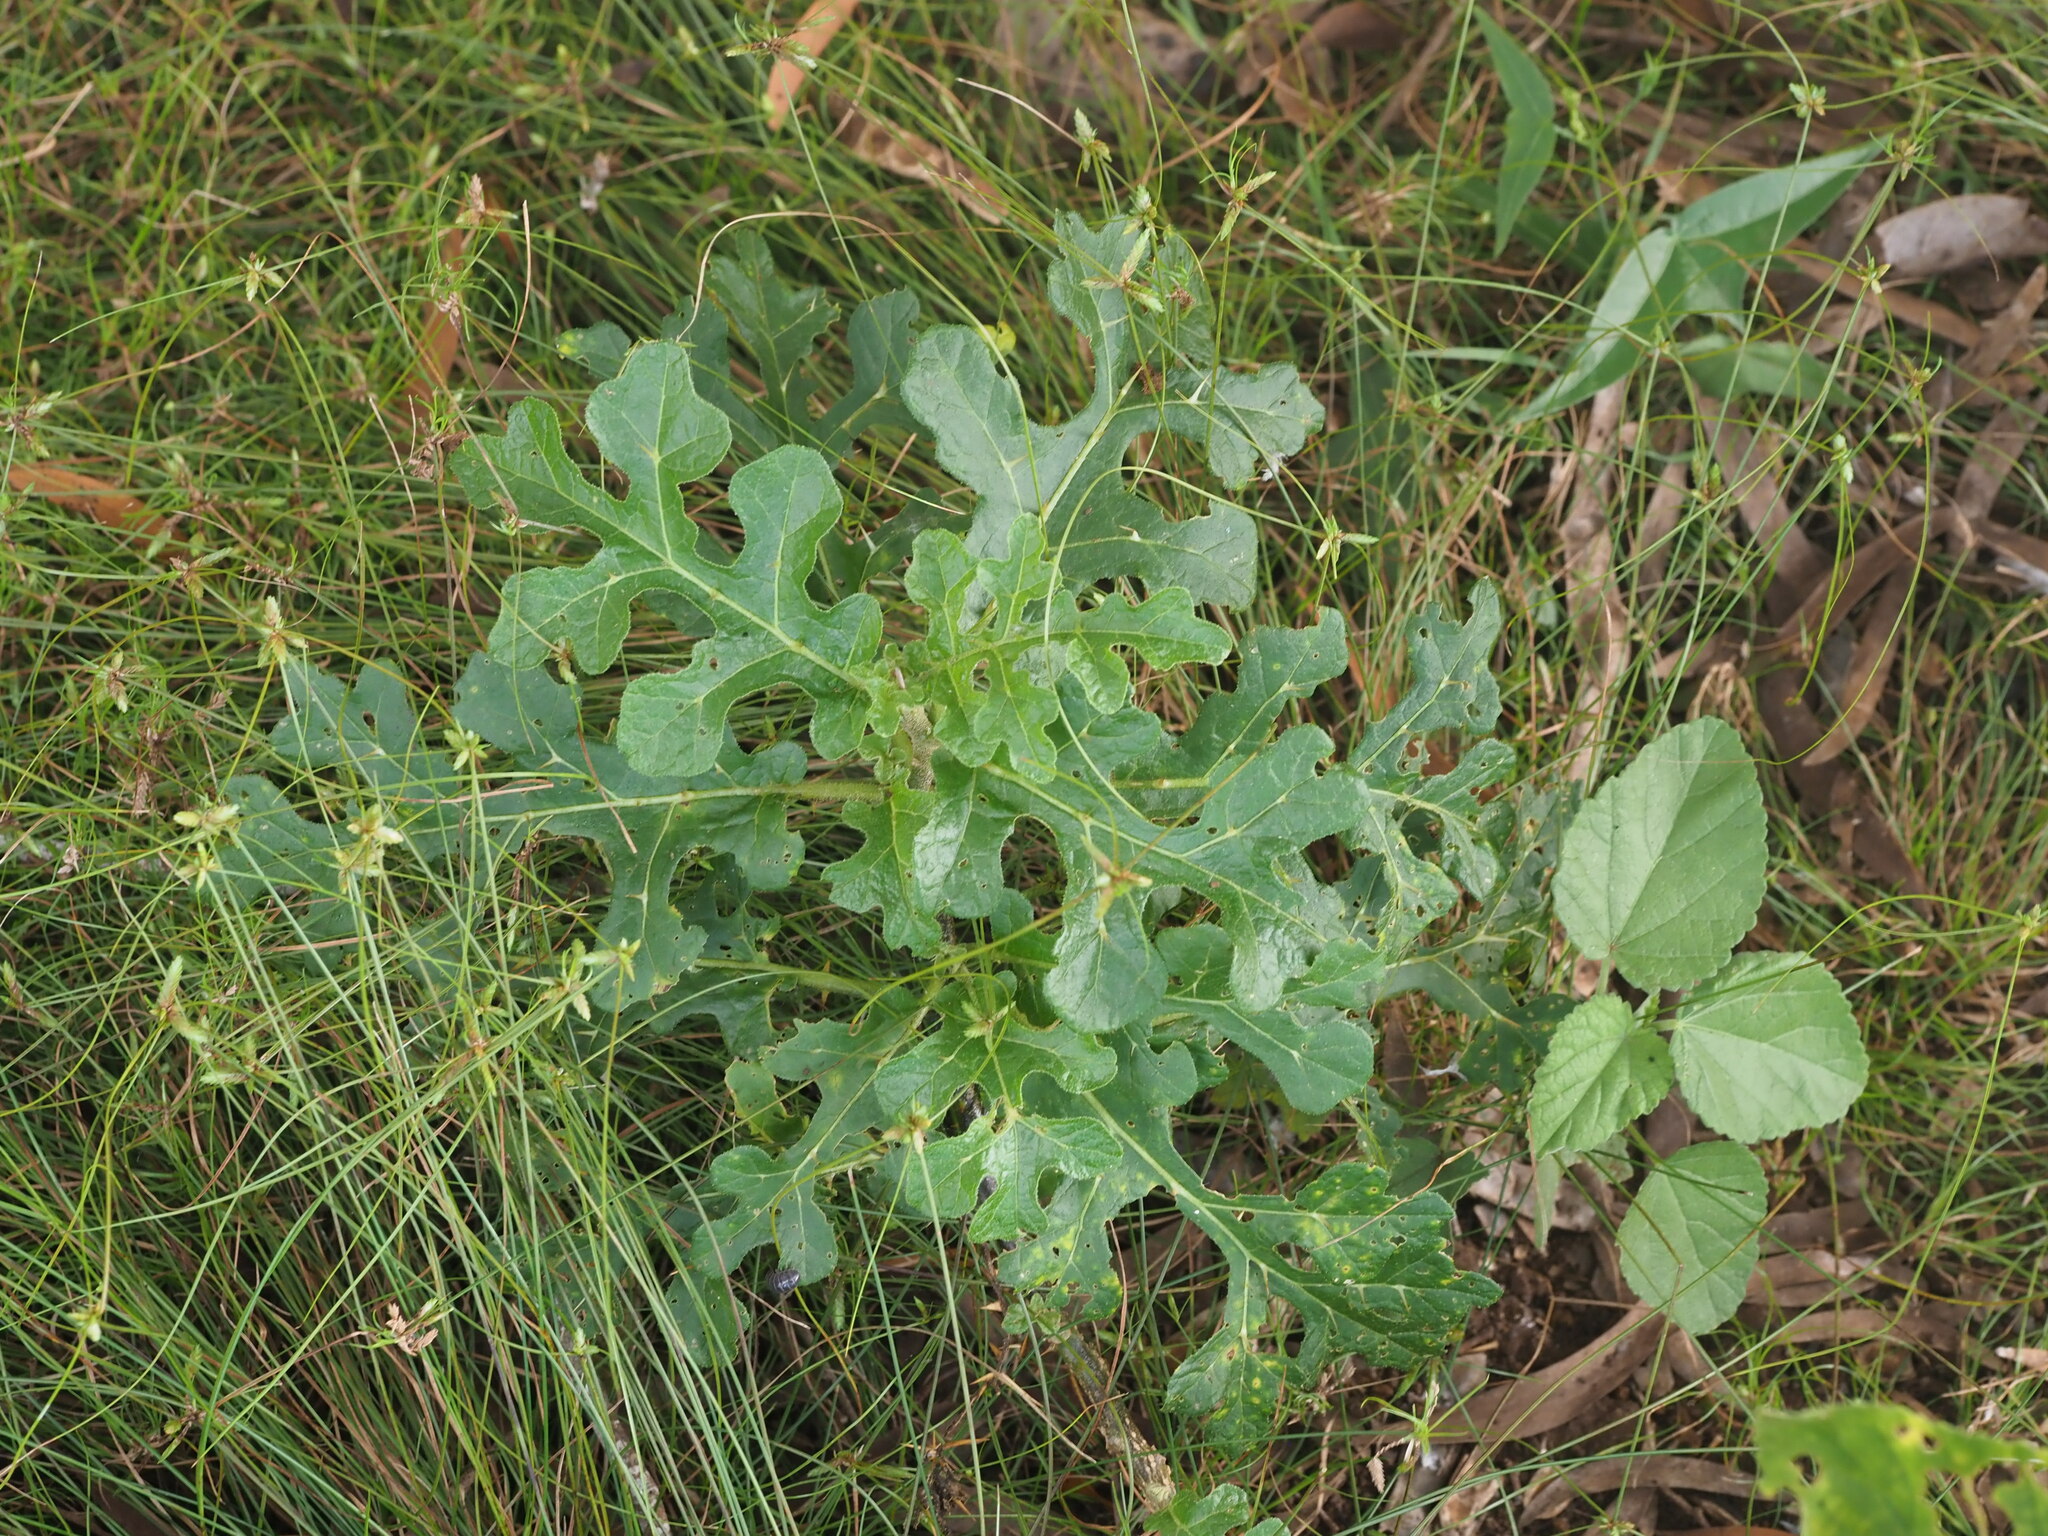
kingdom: Plantae
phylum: Tracheophyta
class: Magnoliopsida
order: Solanales
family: Solanaceae
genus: Solanum
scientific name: Solanum linnaeanum
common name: Nightshade
